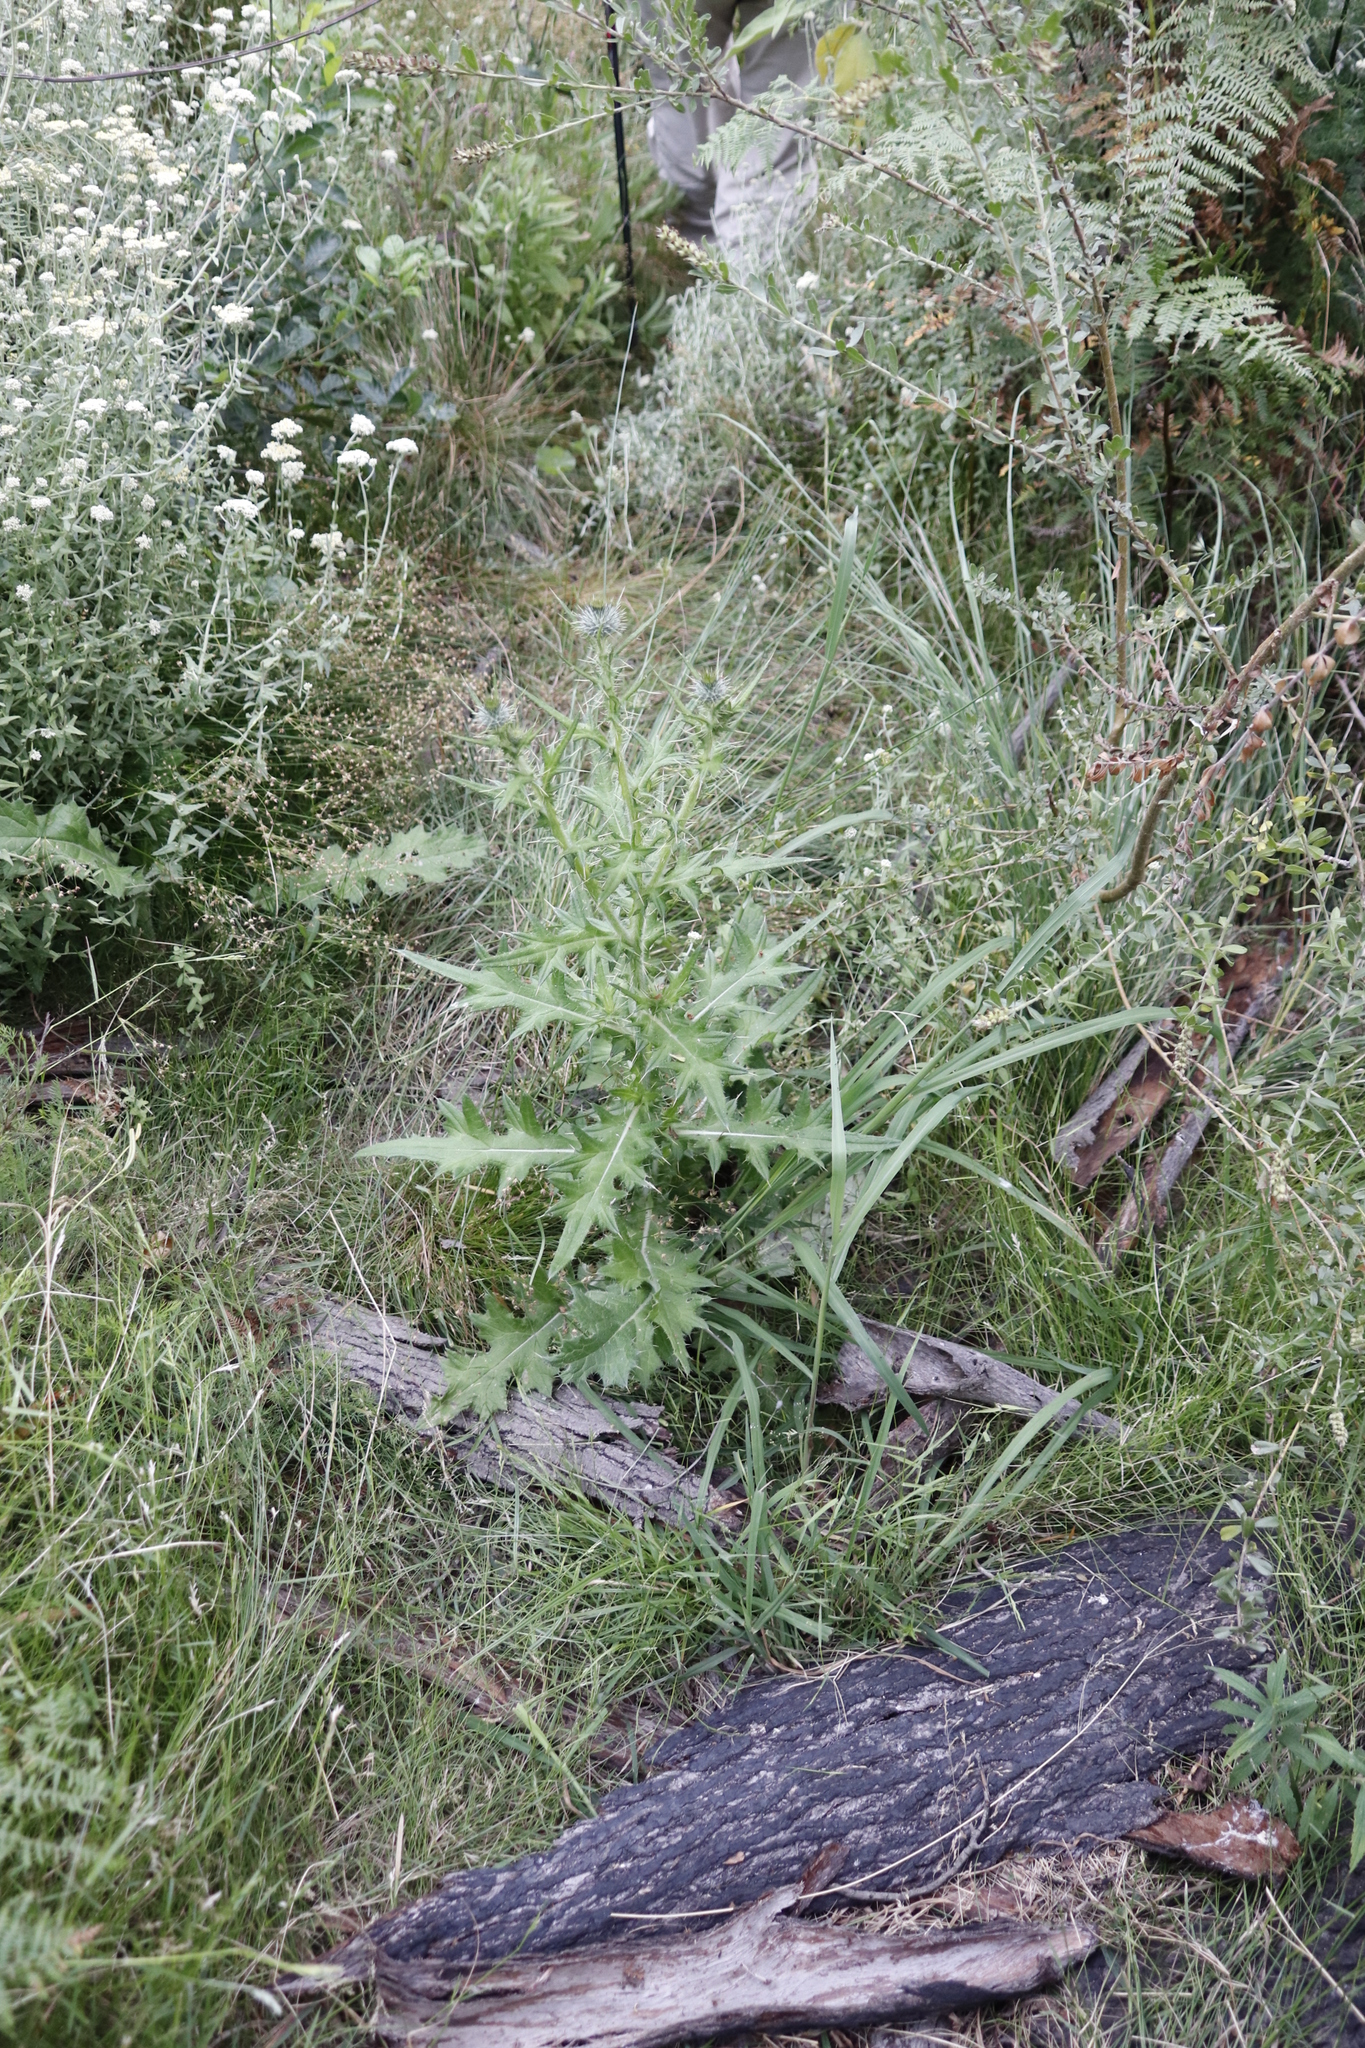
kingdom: Plantae
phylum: Tracheophyta
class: Magnoliopsida
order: Asterales
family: Asteraceae
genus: Cirsium
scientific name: Cirsium vulgare
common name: Bull thistle
